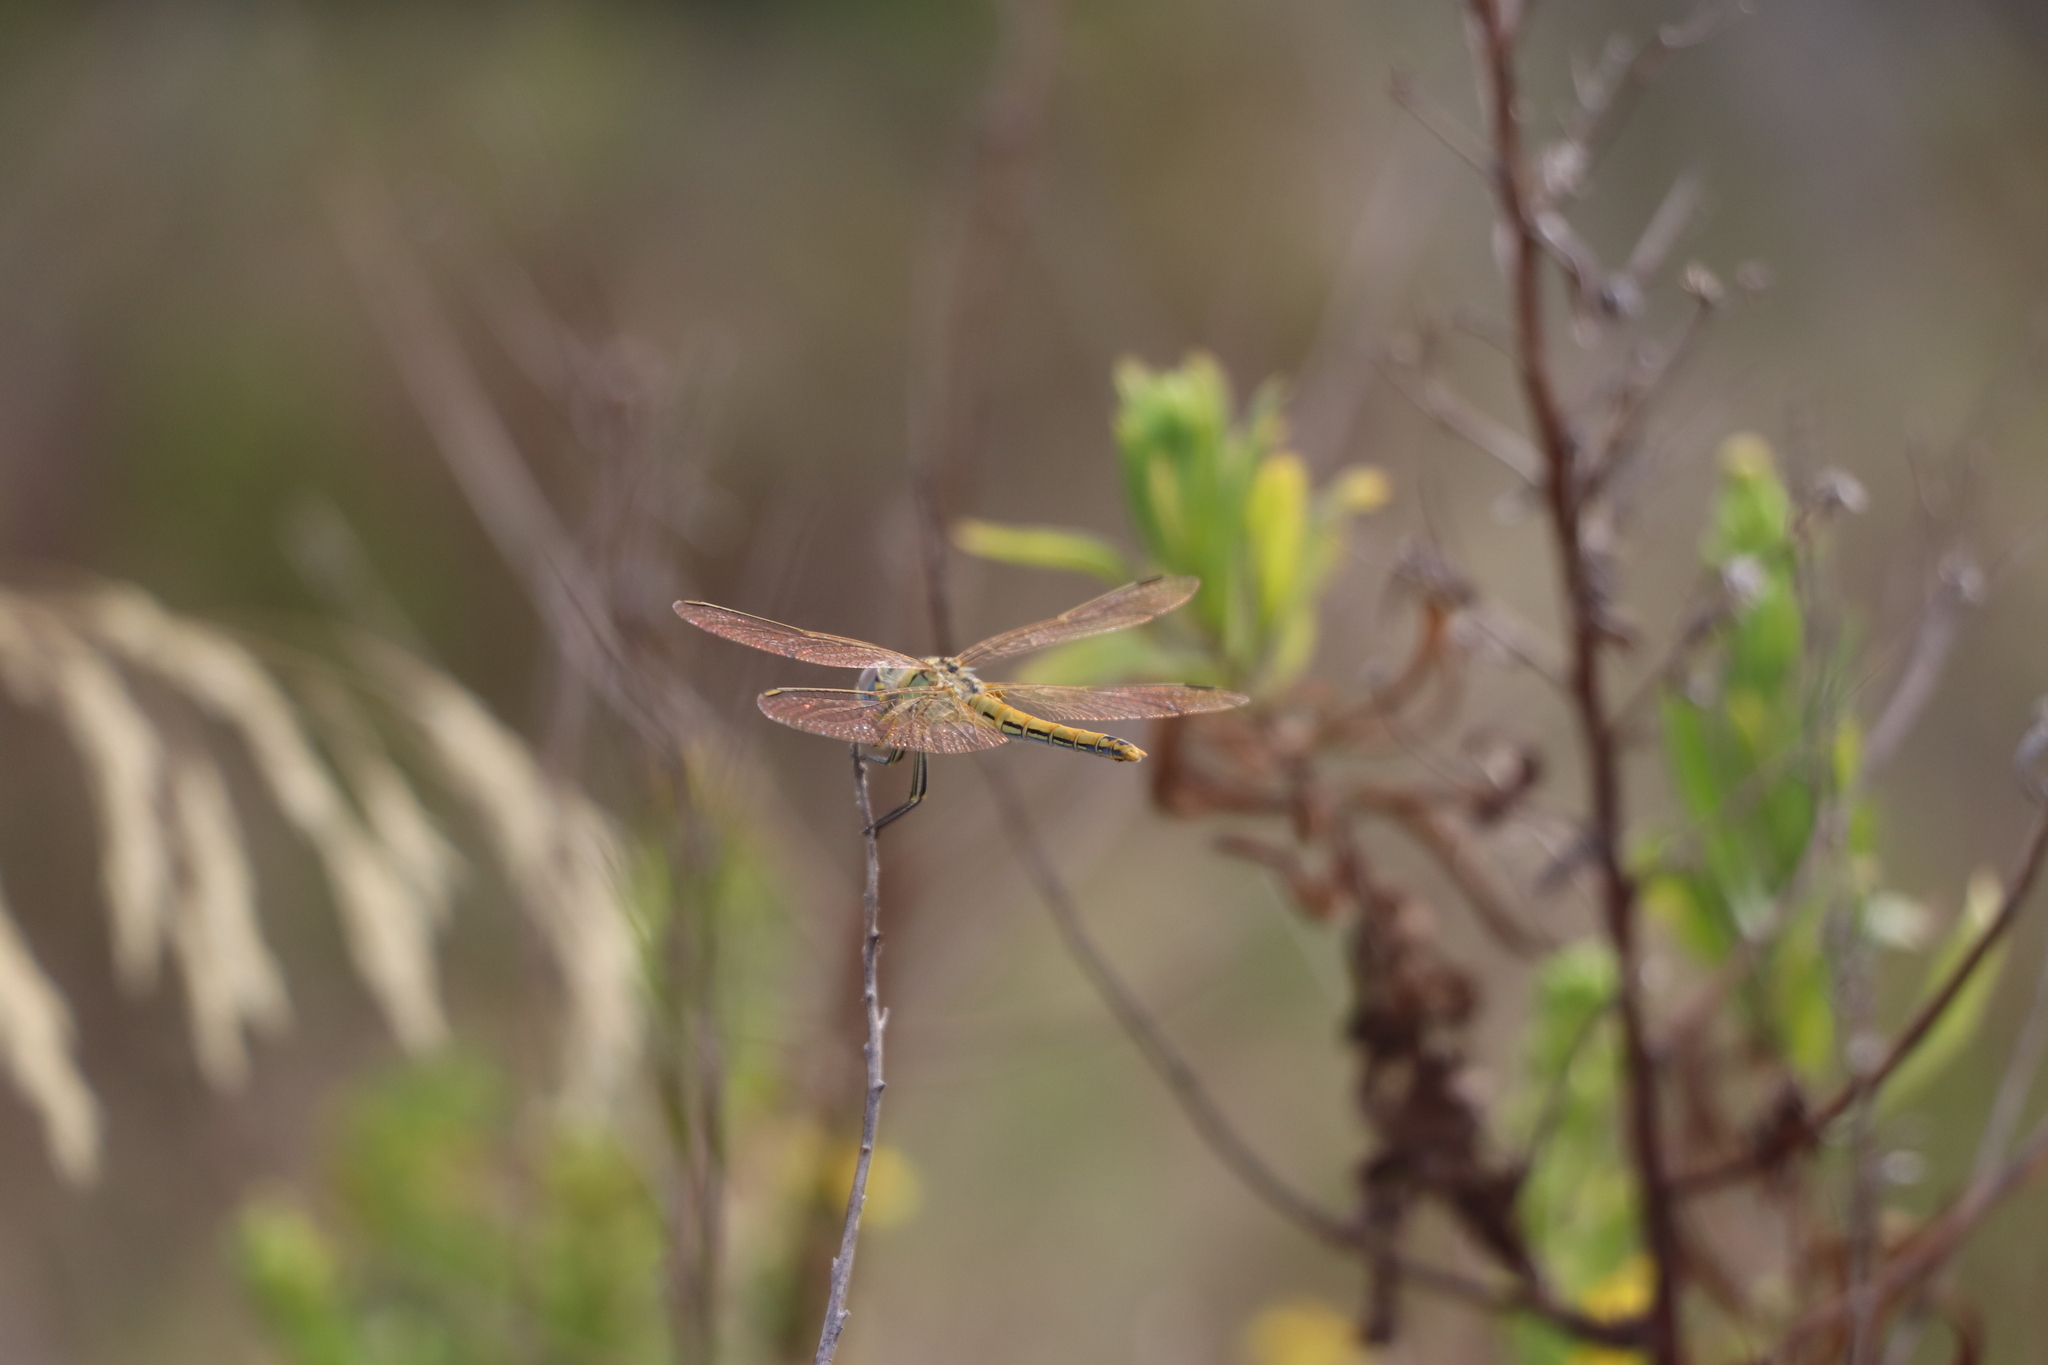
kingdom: Animalia
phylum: Arthropoda
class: Insecta
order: Odonata
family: Libellulidae
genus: Sympetrum
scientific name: Sympetrum fonscolombii
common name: Red-veined darter
